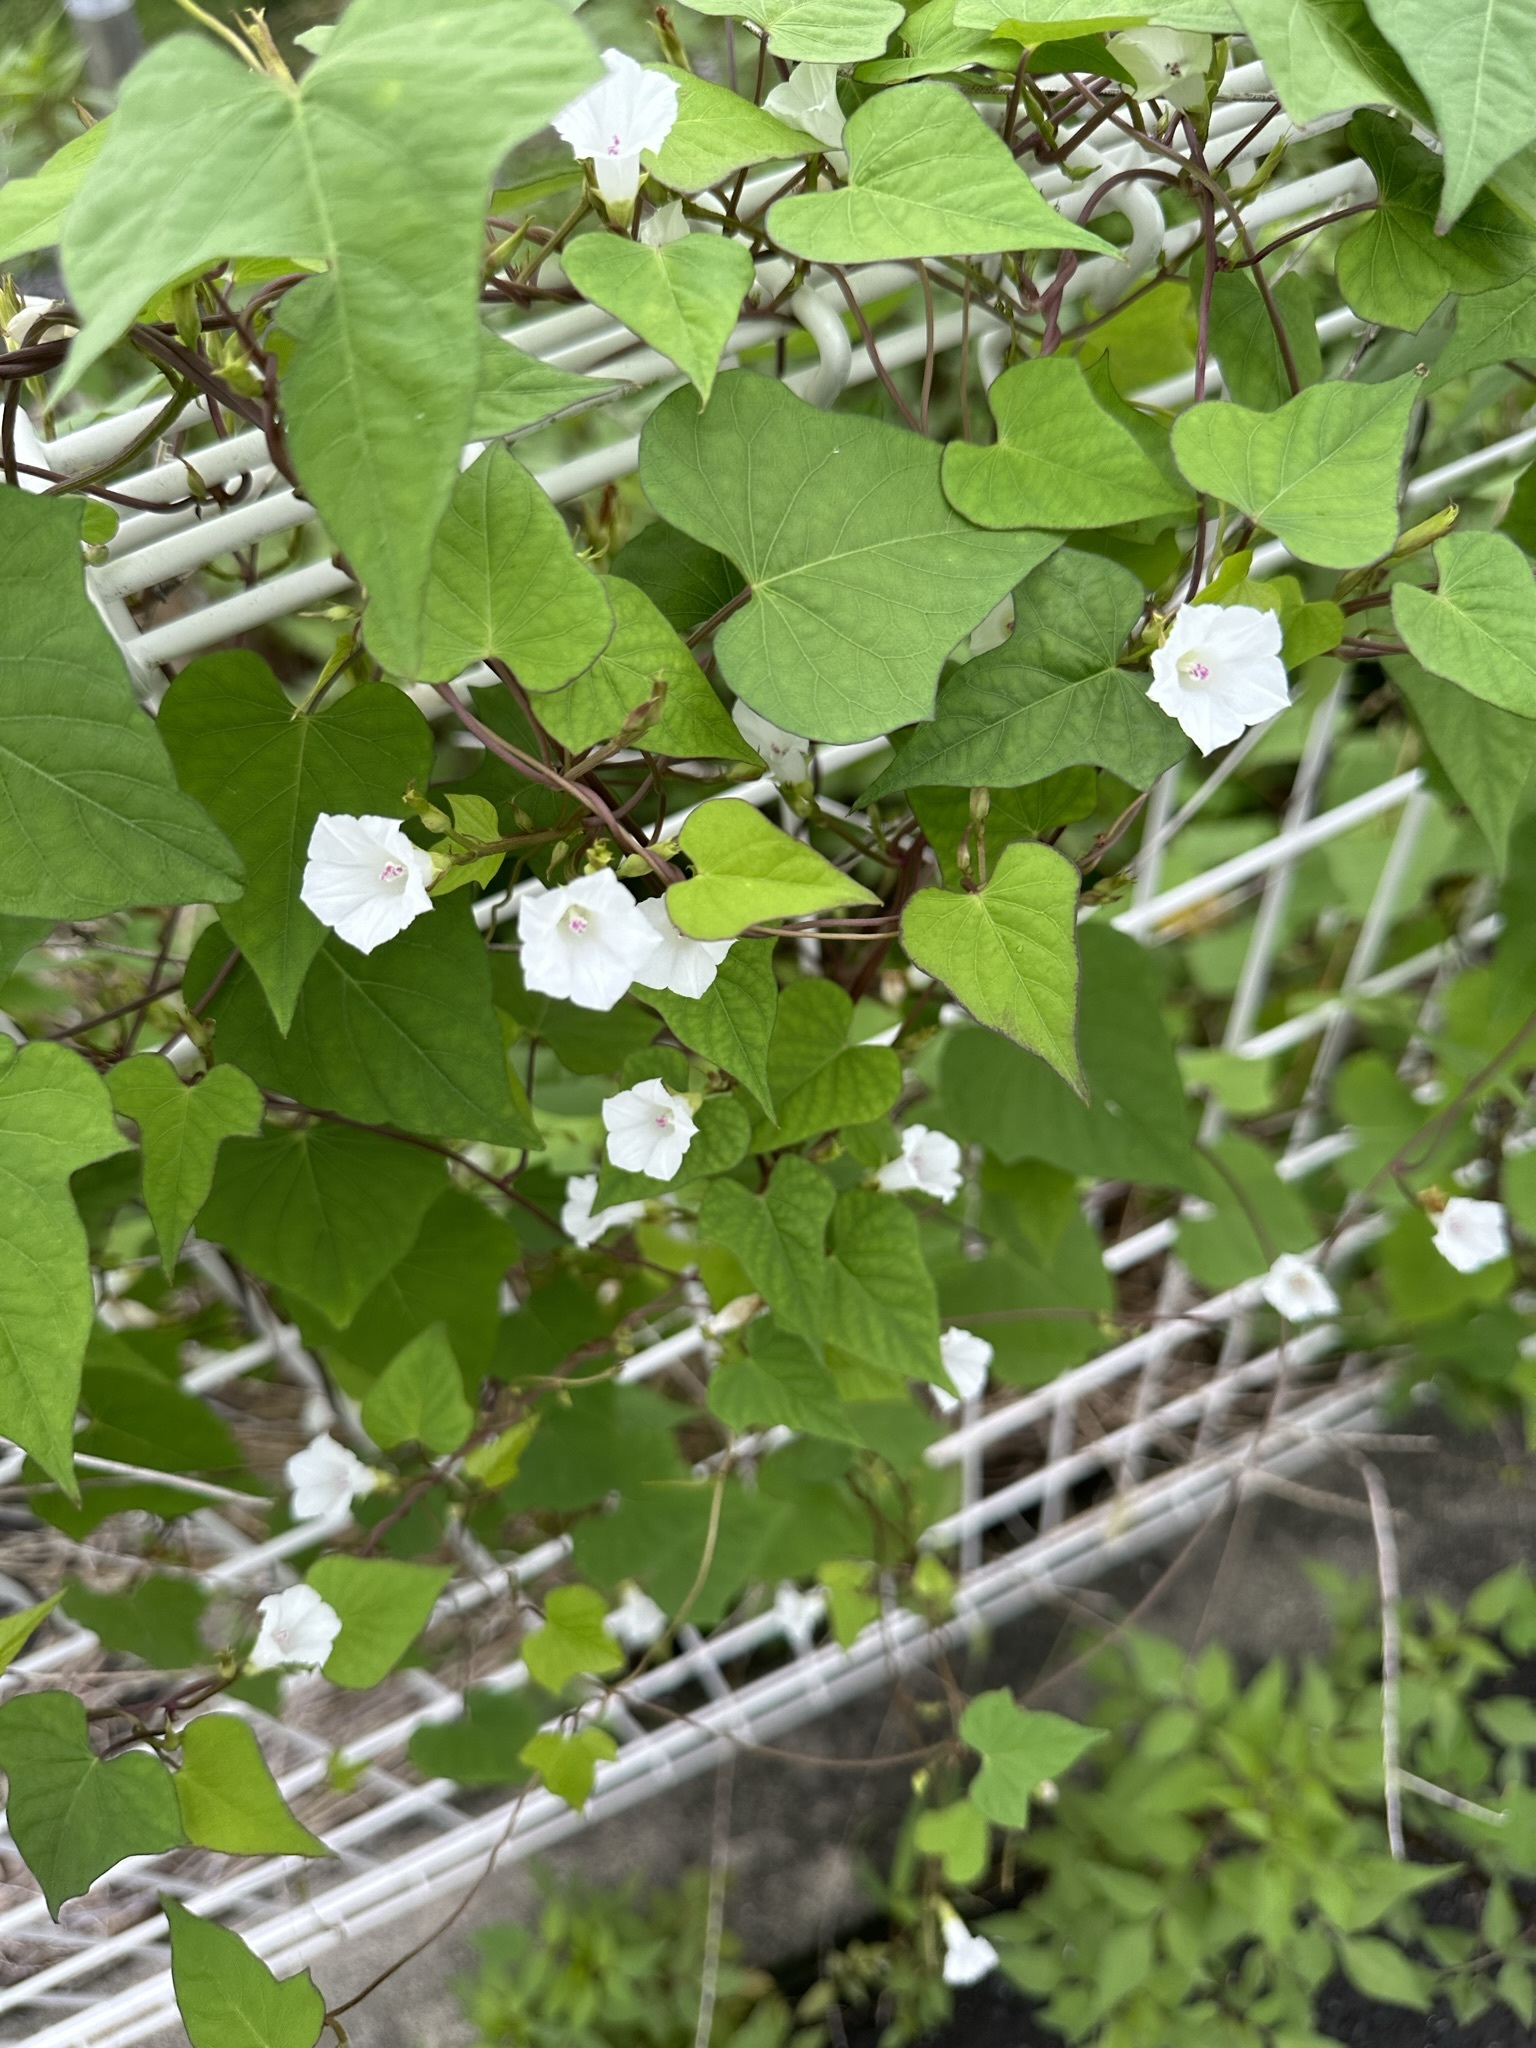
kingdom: Plantae
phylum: Tracheophyta
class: Magnoliopsida
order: Solanales
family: Convolvulaceae
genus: Ipomoea
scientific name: Ipomoea lacunosa
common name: White morning-glory
